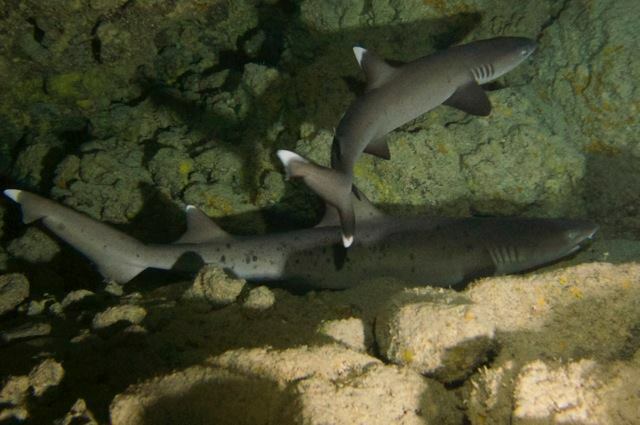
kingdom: Animalia
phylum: Chordata
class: Elasmobranchii
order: Carcharhiniformes
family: Carcharhinidae
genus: Triaenodon
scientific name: Triaenodon obesus
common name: Whitetip reef shark
